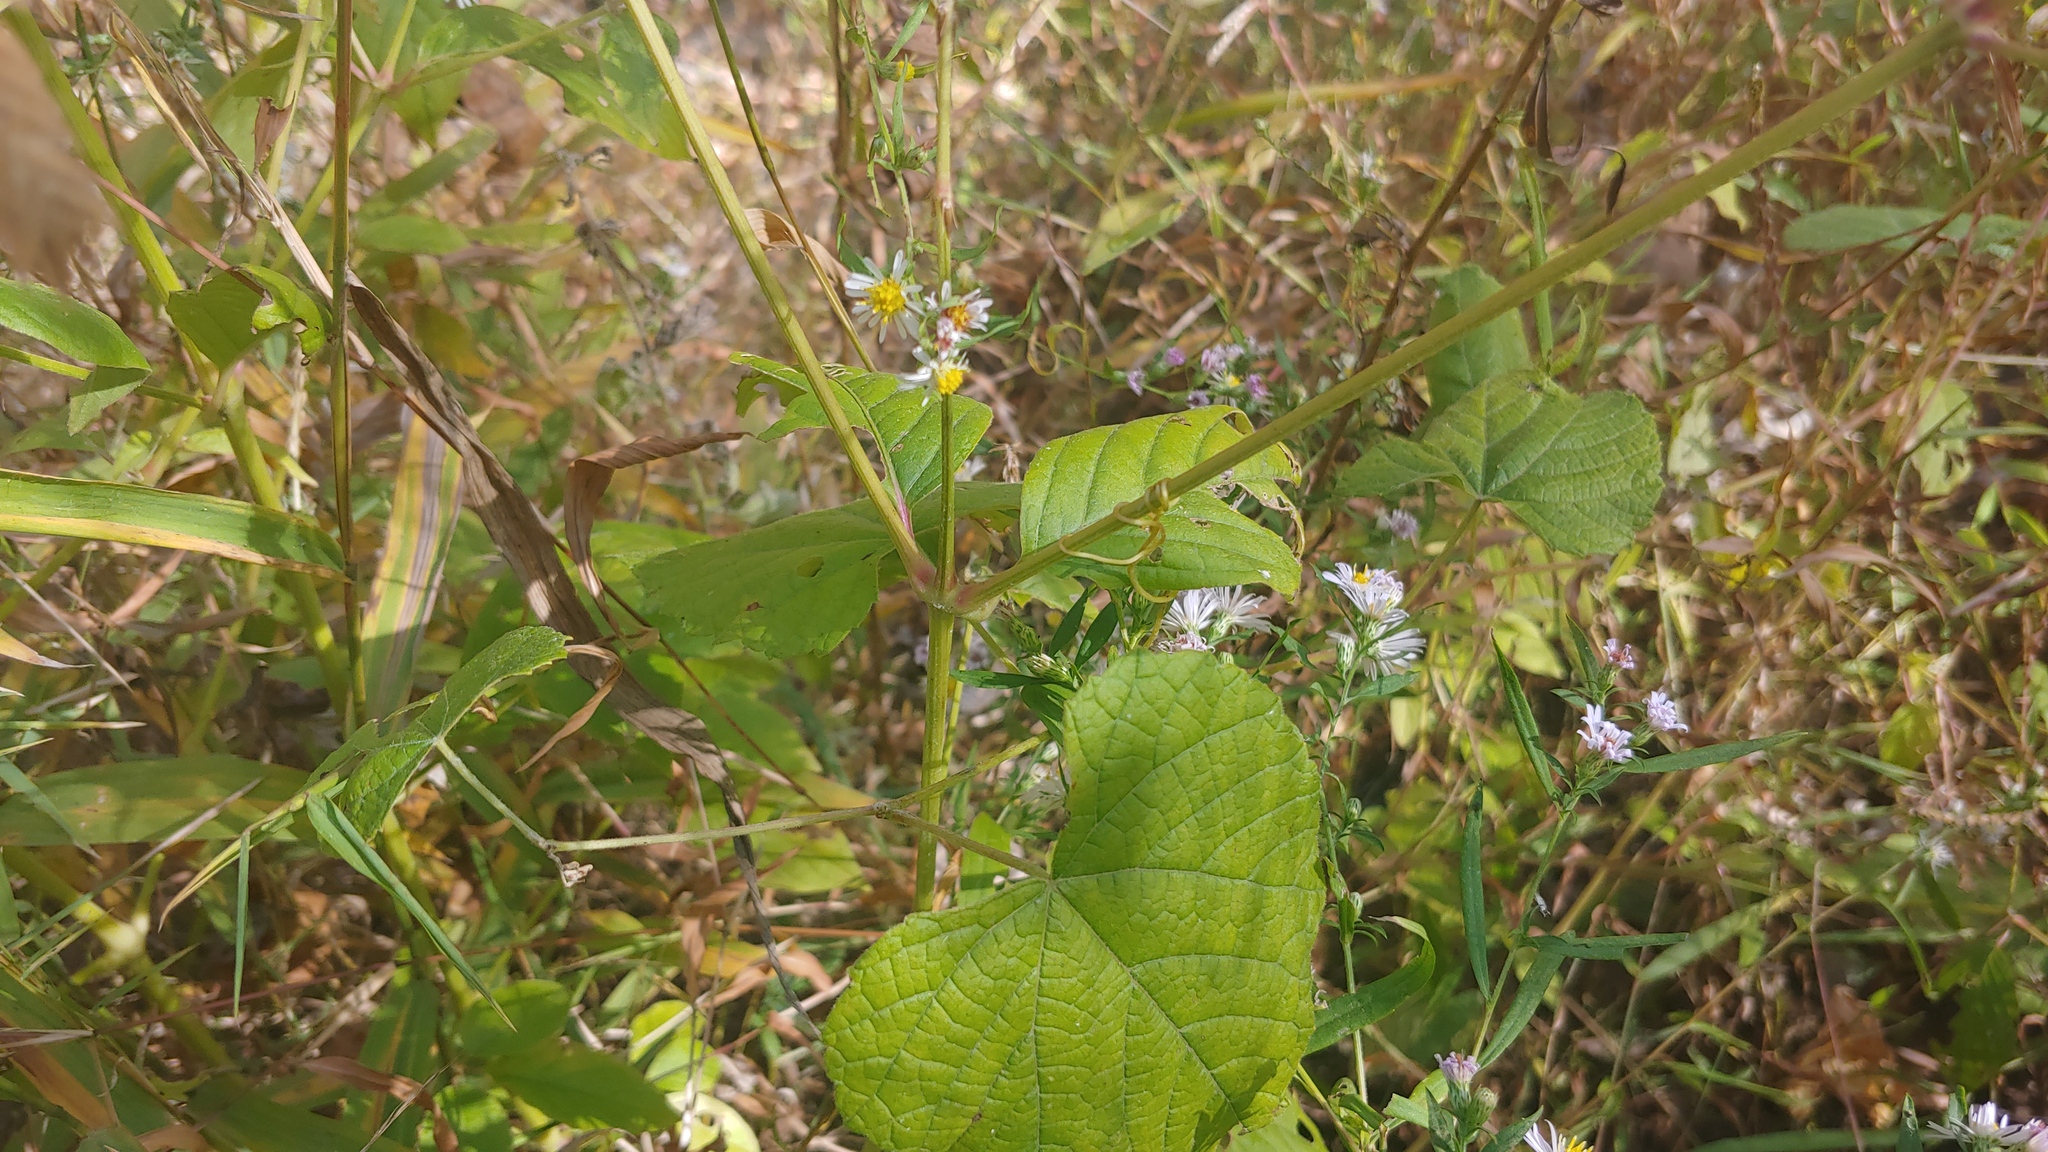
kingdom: Plantae
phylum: Tracheophyta
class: Magnoliopsida
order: Caryophyllales
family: Amaranthaceae
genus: Achyranthes
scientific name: Achyranthes bidentata
